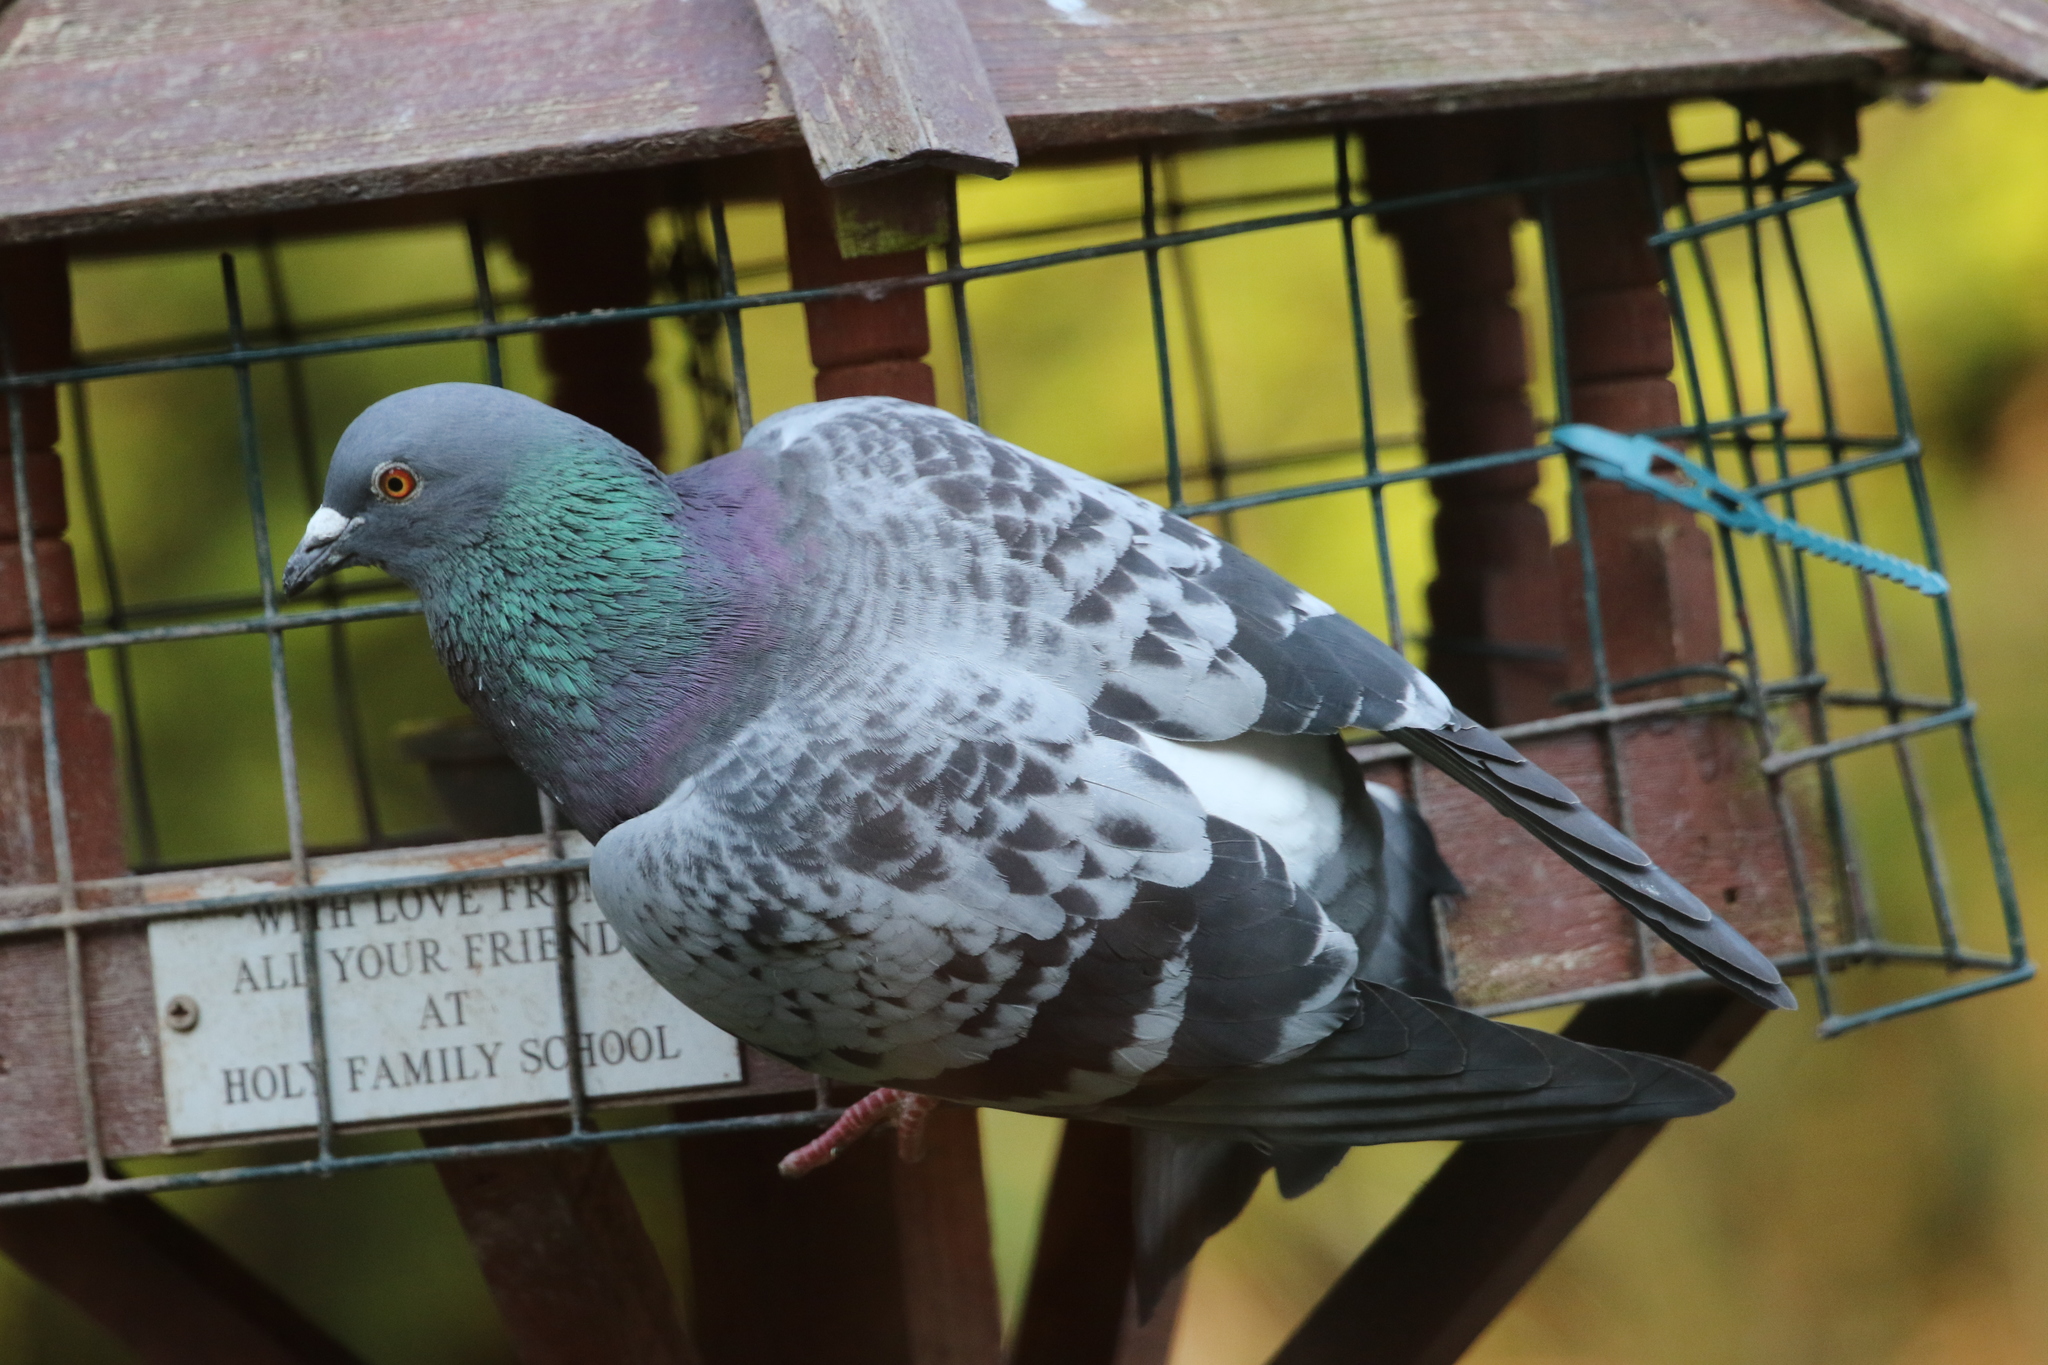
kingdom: Animalia
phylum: Chordata
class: Aves
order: Columbiformes
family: Columbidae
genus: Columba
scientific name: Columba livia
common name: Rock pigeon
